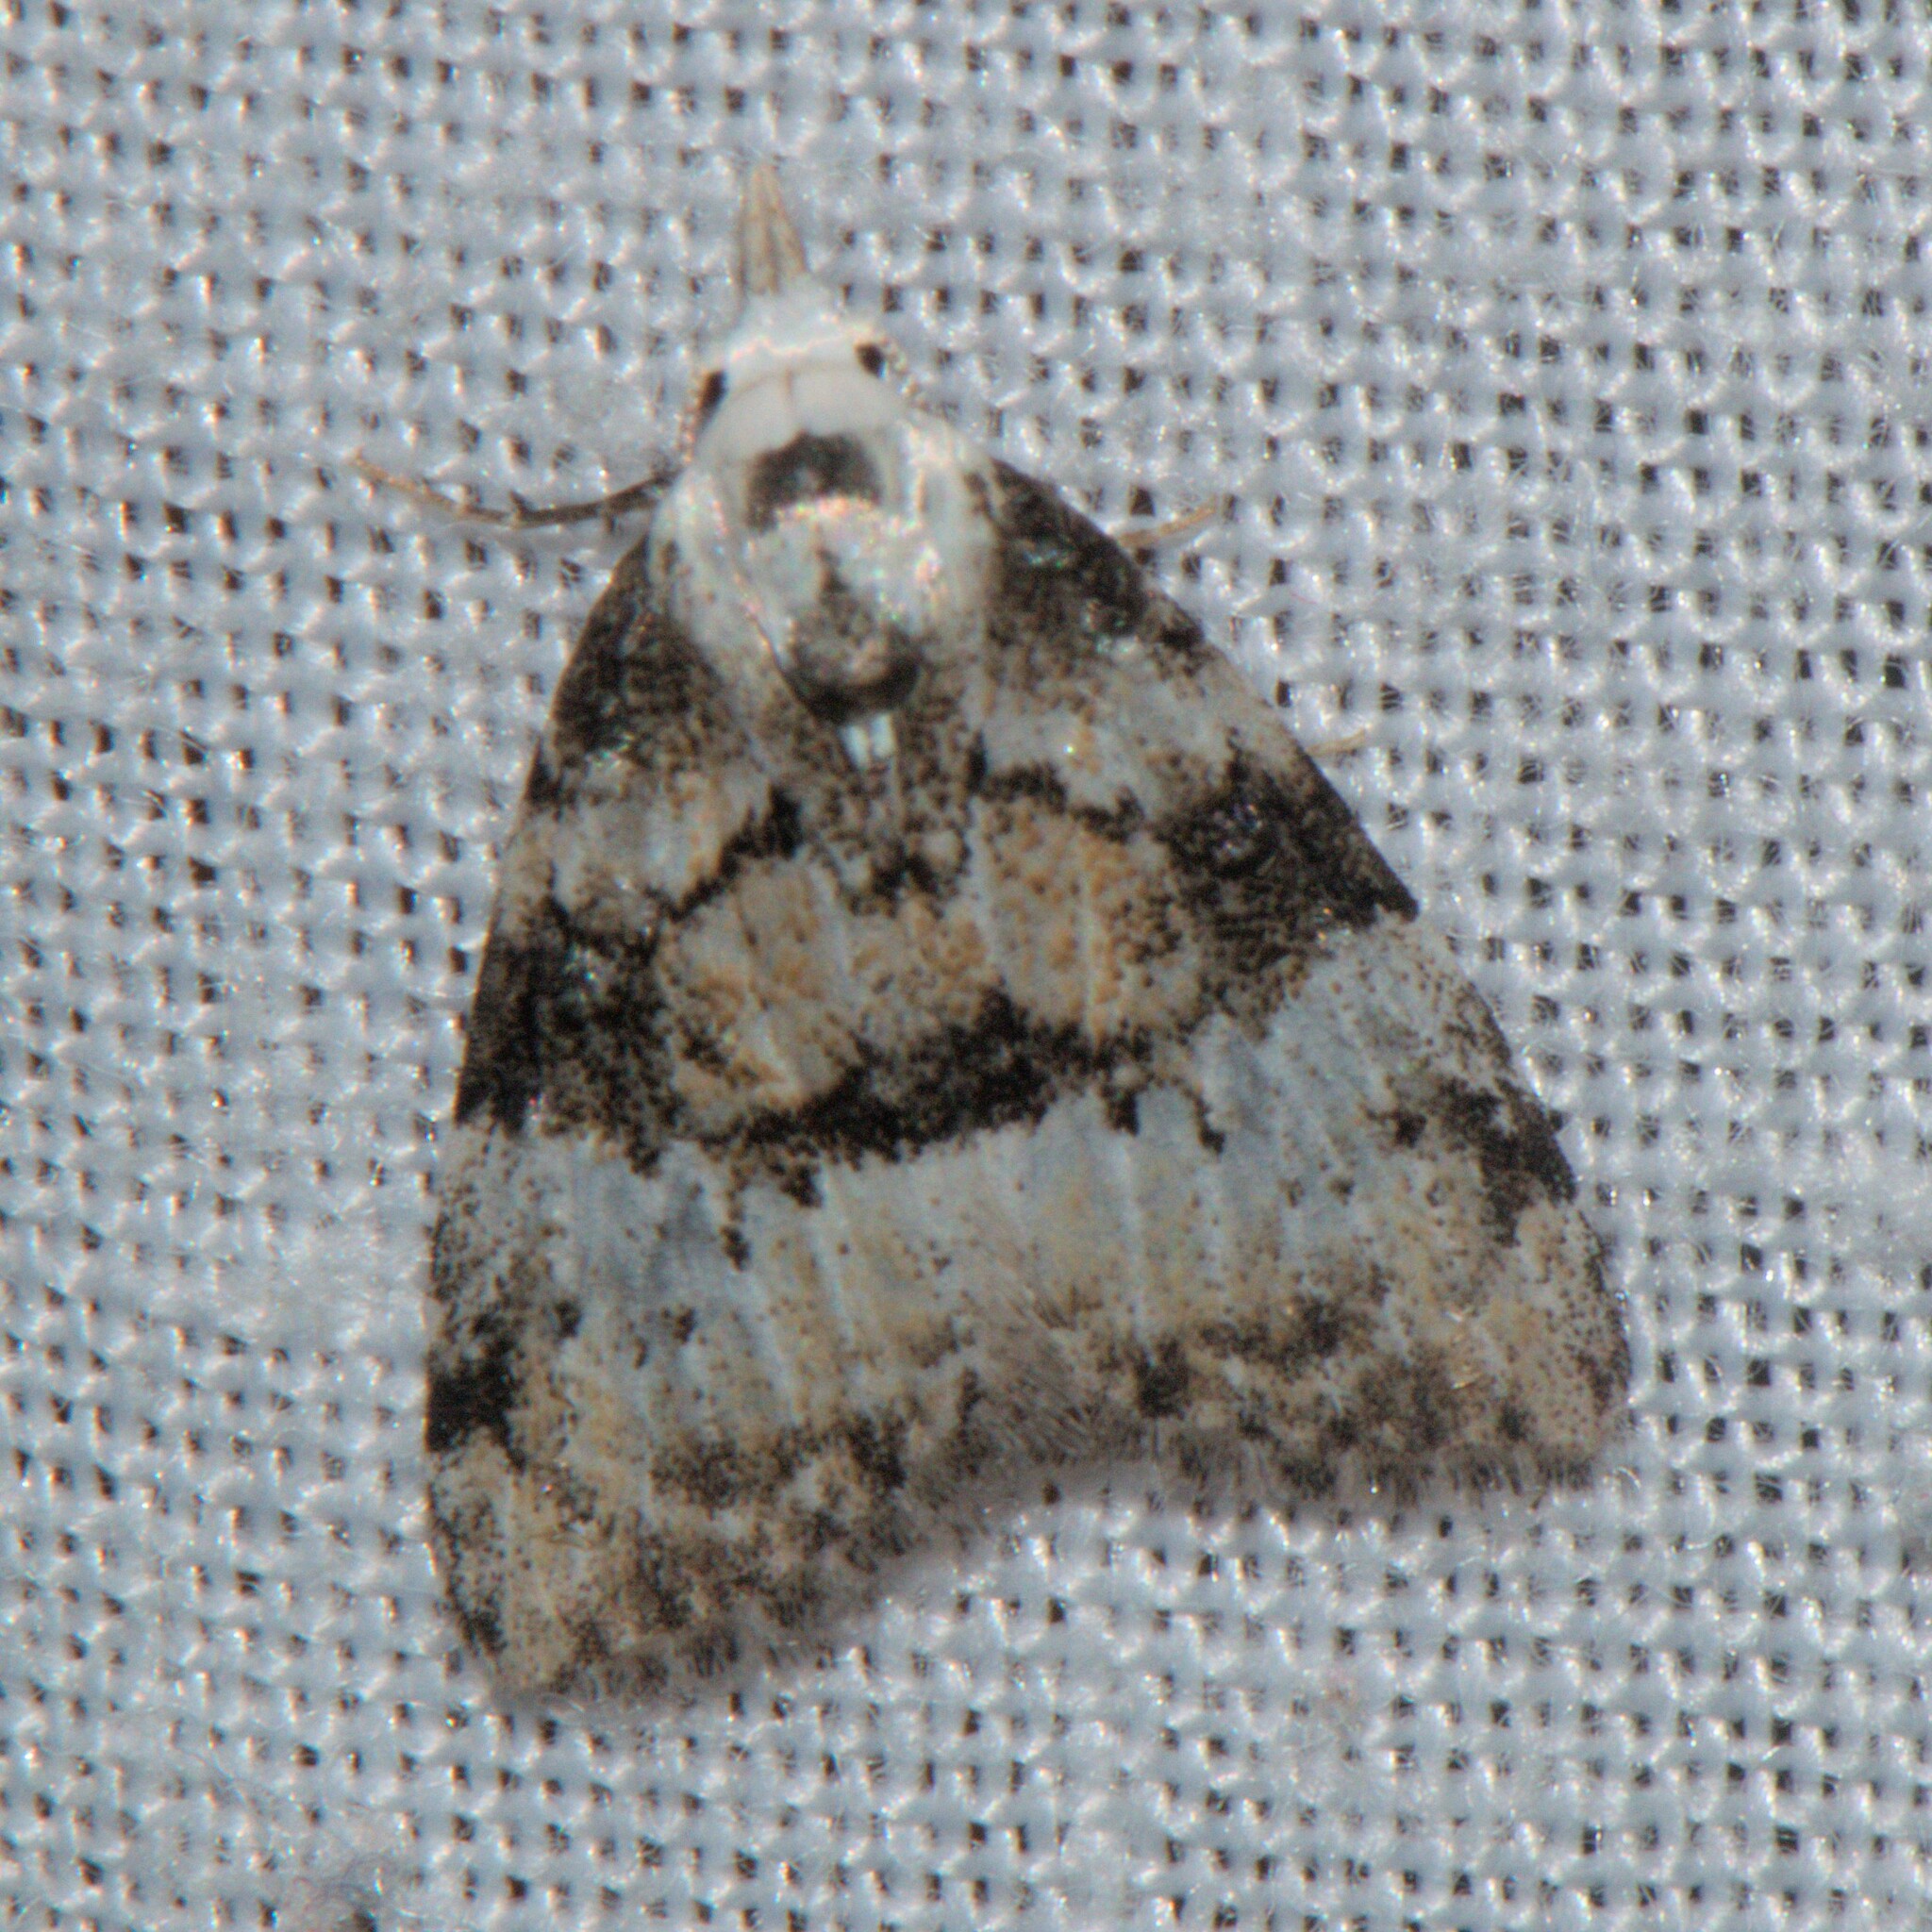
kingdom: Animalia
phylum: Arthropoda
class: Insecta
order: Lepidoptera
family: Nolidae
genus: Manoba
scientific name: Manoba
